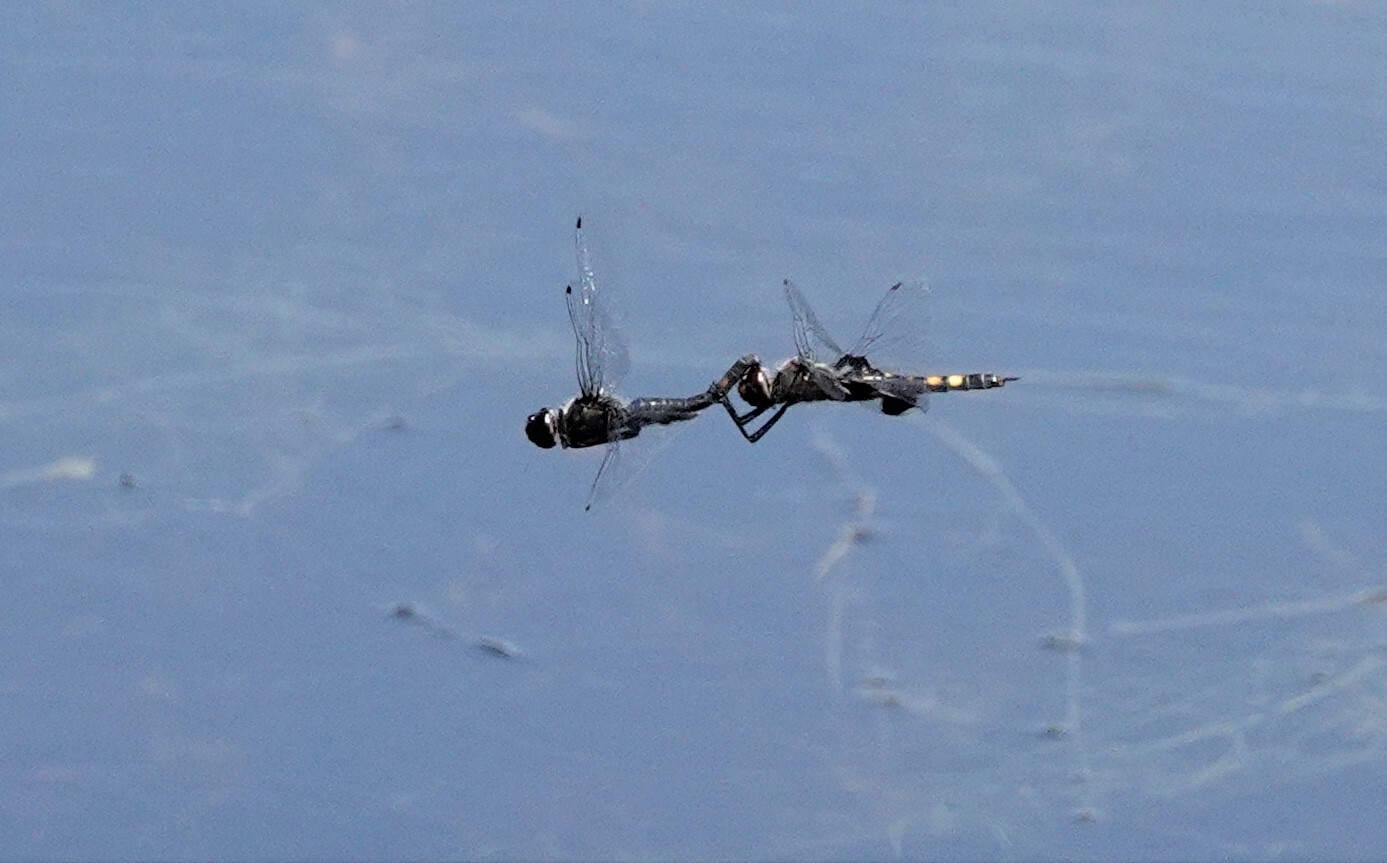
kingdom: Animalia
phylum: Arthropoda
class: Insecta
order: Odonata
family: Libellulidae
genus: Tramea
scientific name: Tramea lacerata
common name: Black saddlebags
